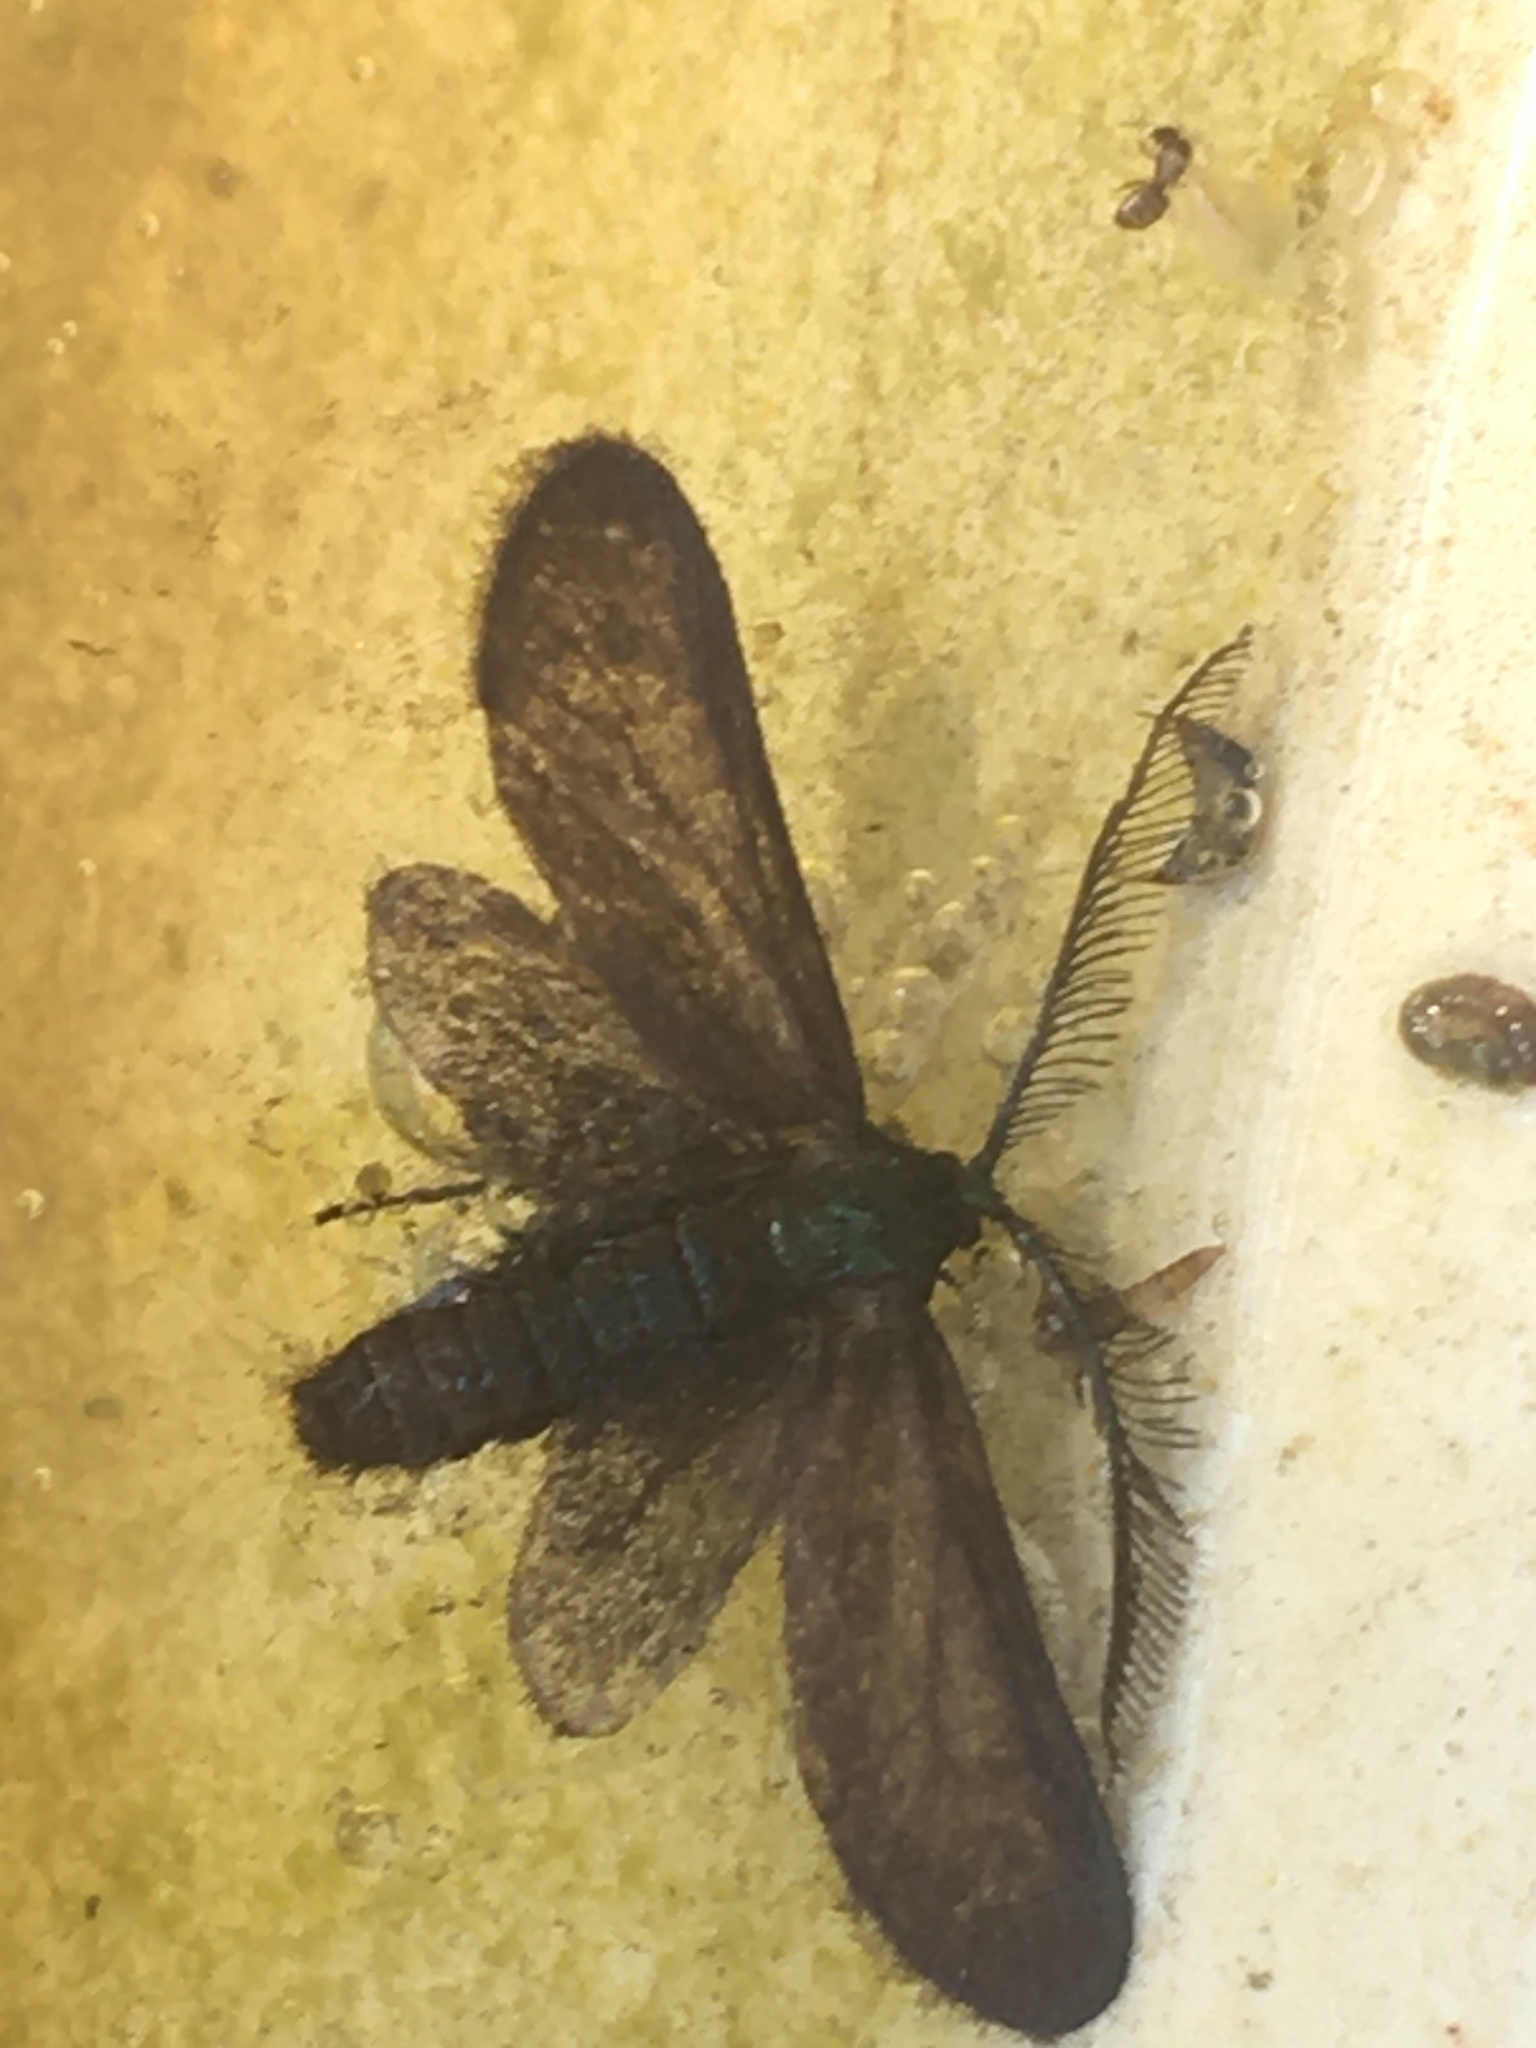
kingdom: Animalia
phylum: Arthropoda
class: Insecta
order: Lepidoptera
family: Zygaenidae
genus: Theresimima
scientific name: Theresimima ampellophaga
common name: Vine bud moth
